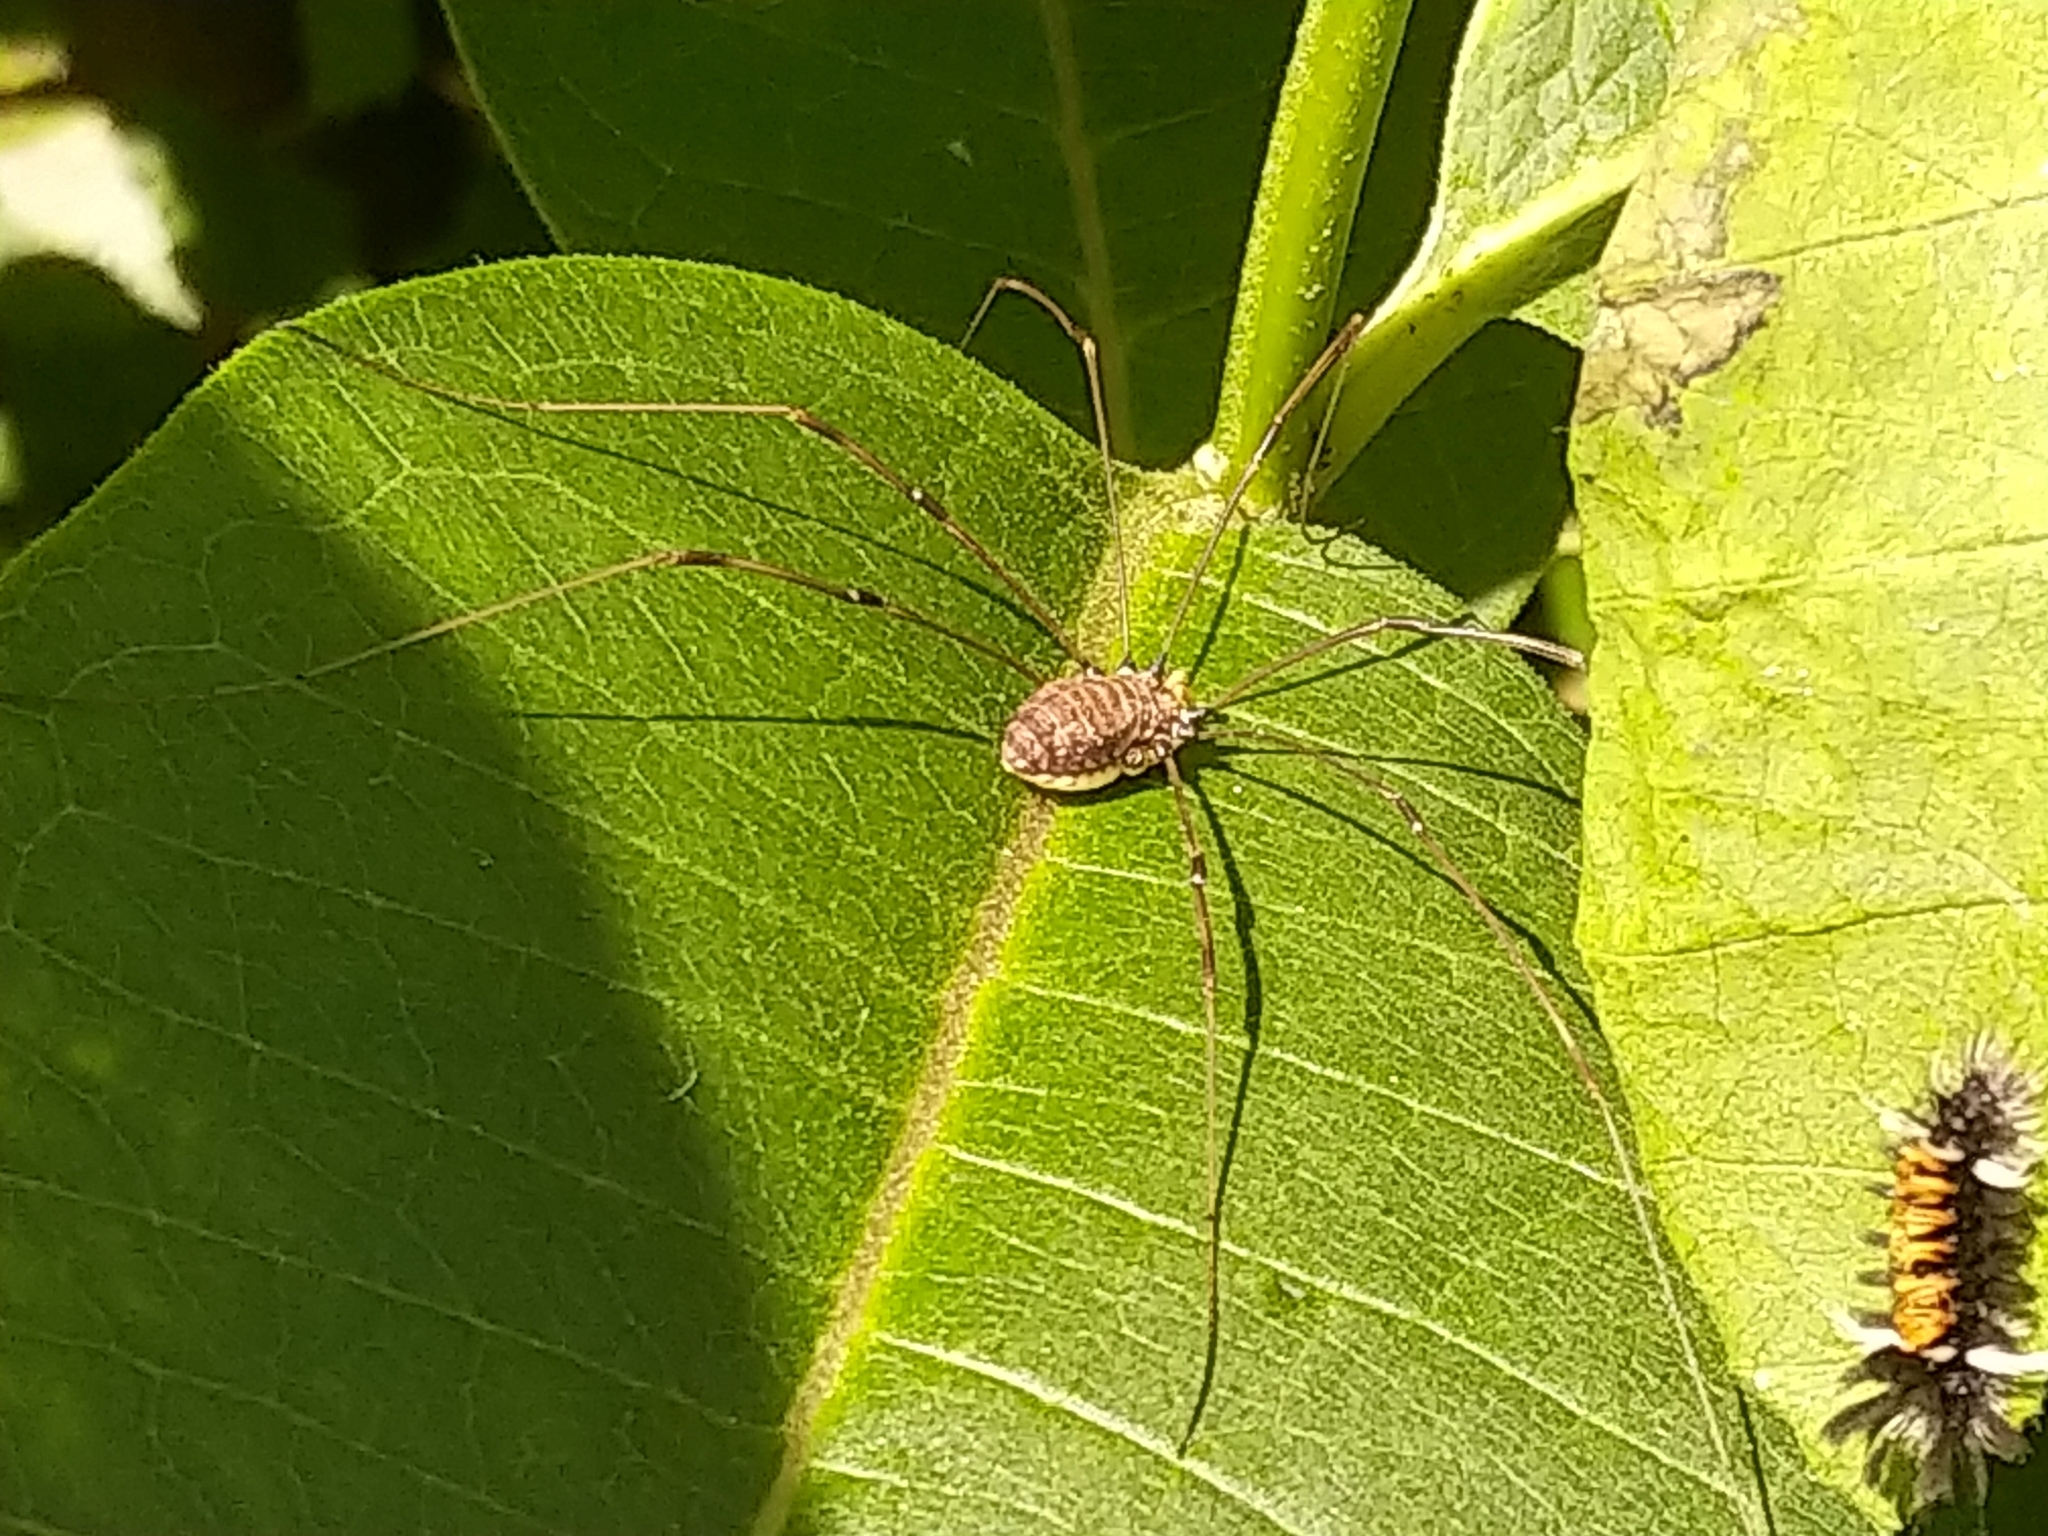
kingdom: Animalia
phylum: Arthropoda
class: Arachnida
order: Opiliones
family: Sclerosomatidae
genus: Leiobunum
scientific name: Leiobunum vittatum
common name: Eastern harvestman
